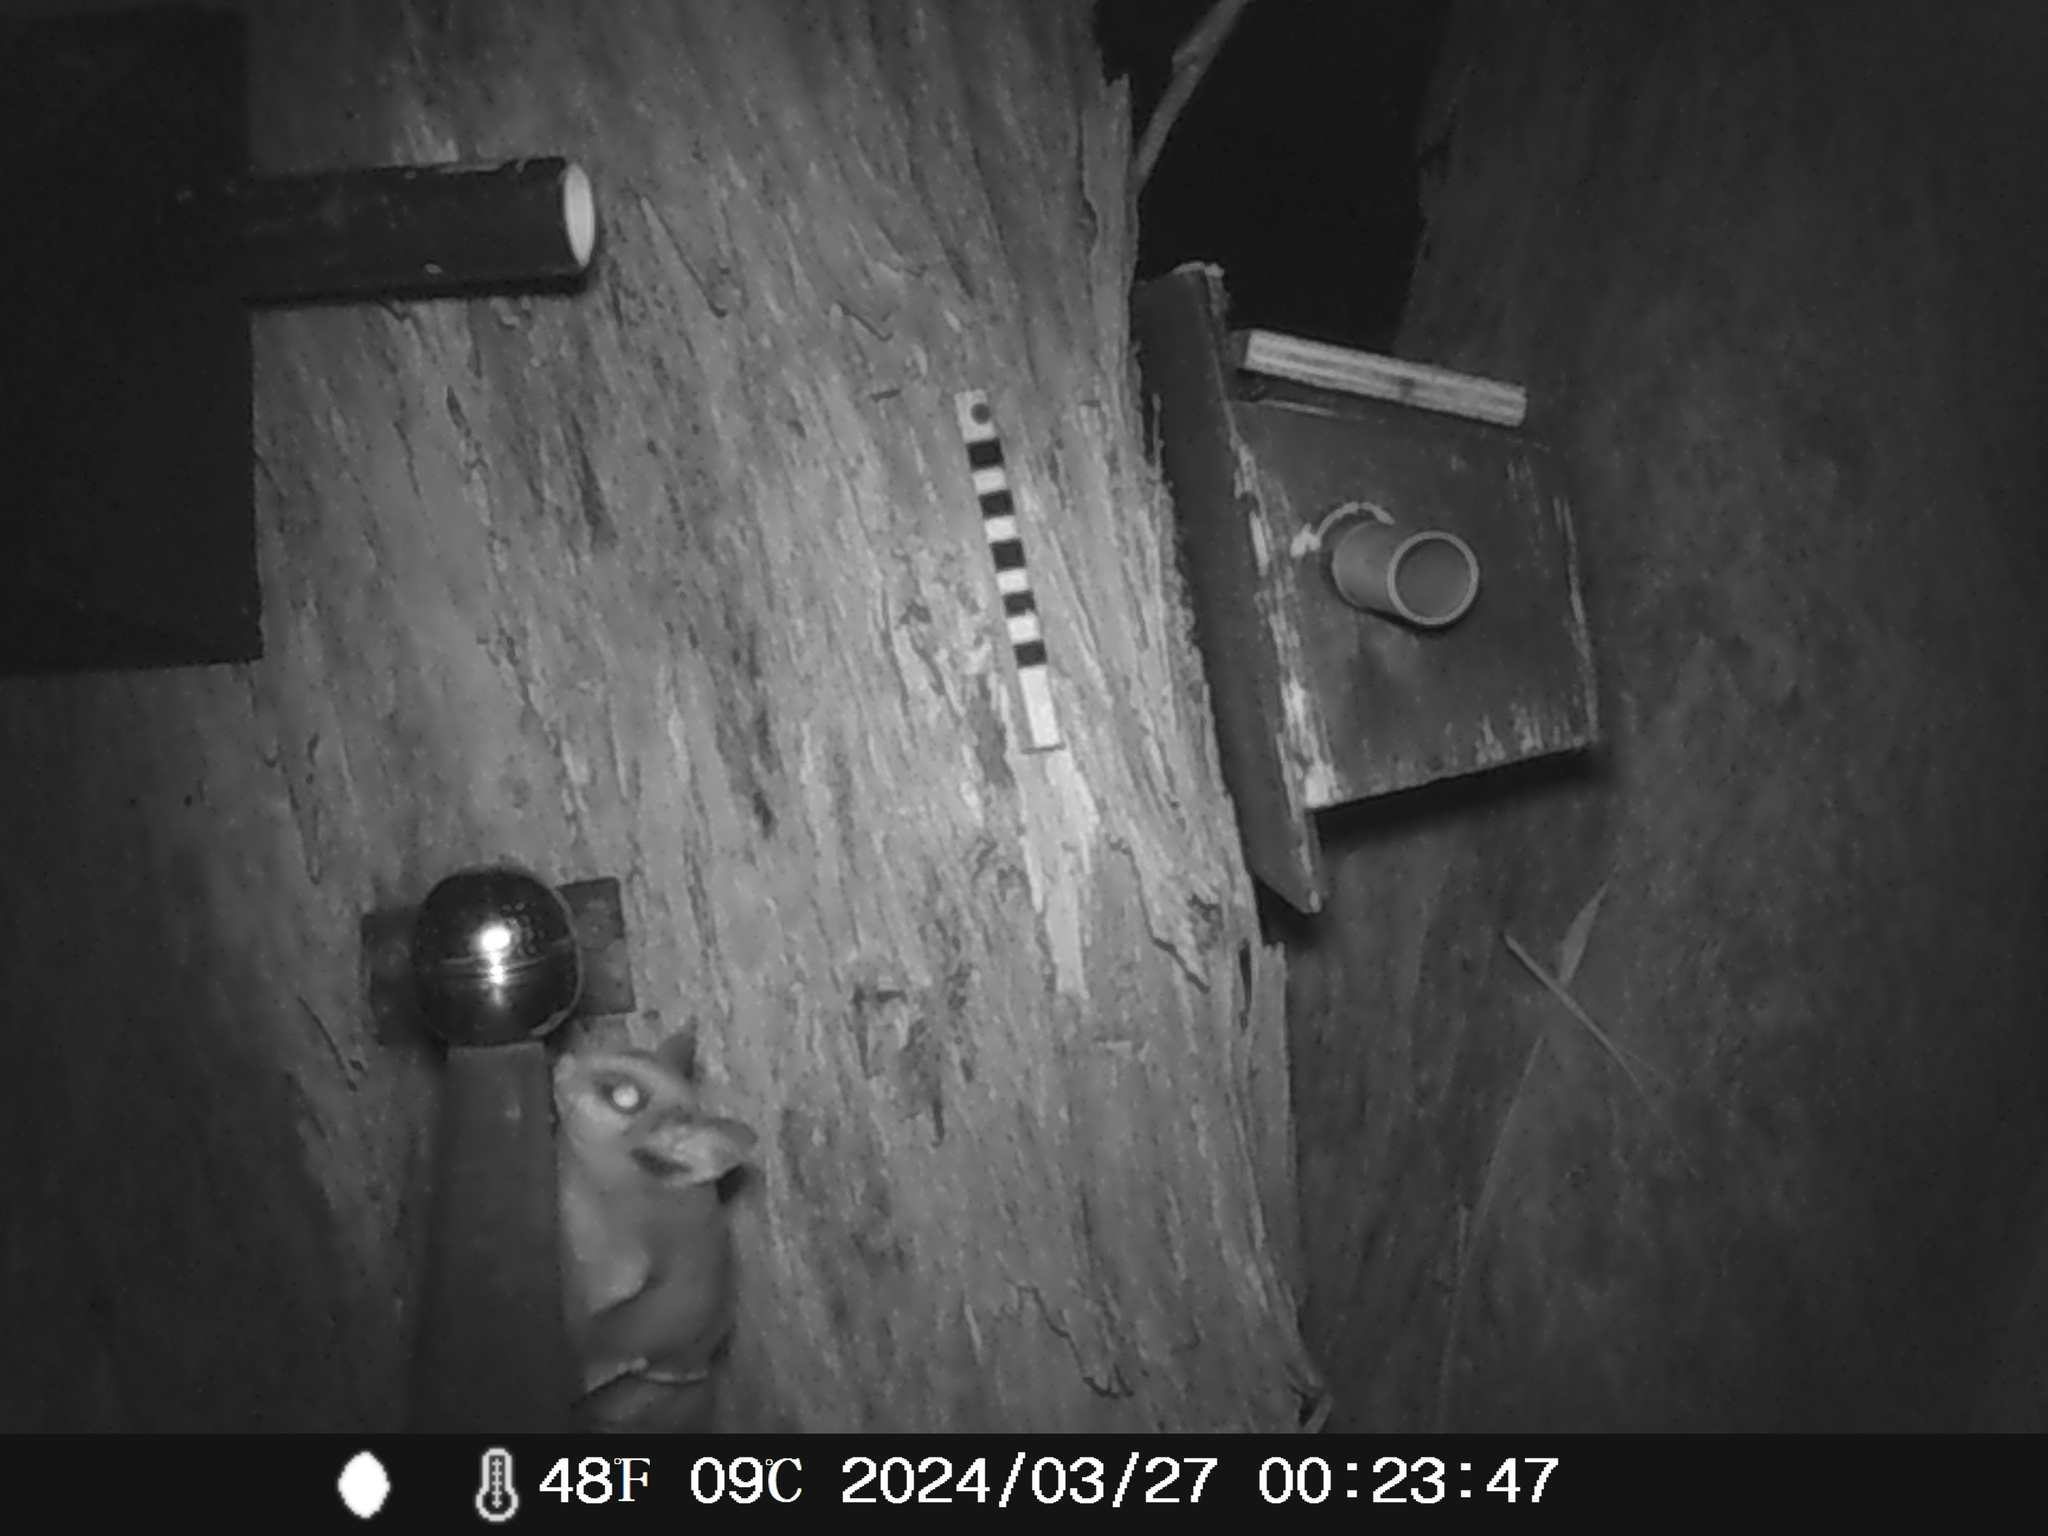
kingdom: Animalia
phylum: Chordata
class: Mammalia
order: Diprotodontia
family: Petauridae
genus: Petaurus
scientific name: Petaurus breviceps
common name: Sugar glider
